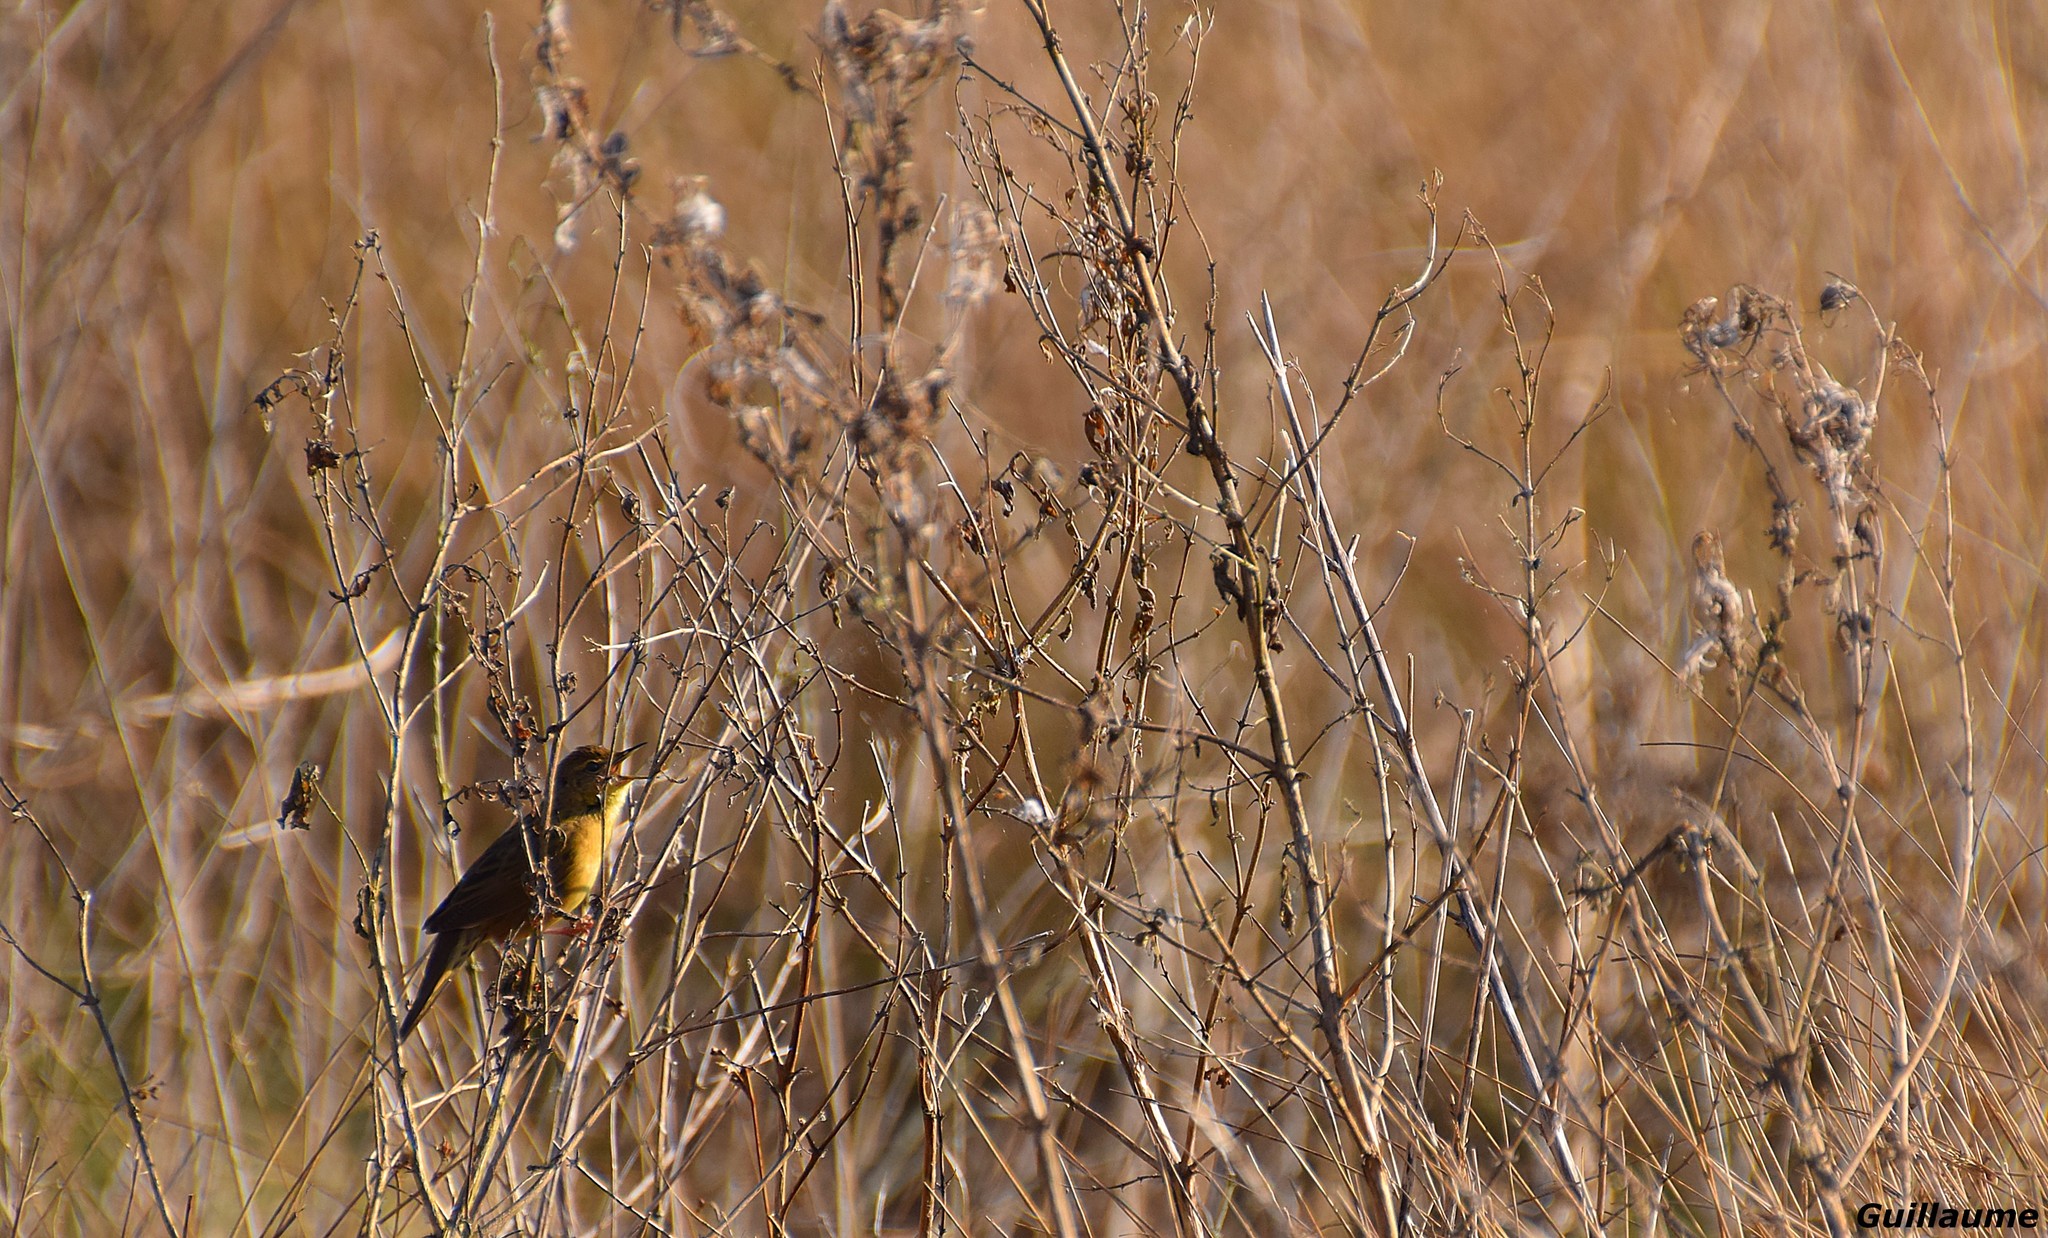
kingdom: Animalia
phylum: Chordata
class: Aves
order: Passeriformes
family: Locustellidae
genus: Locustella
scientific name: Locustella naevia
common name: Common grasshopper warbler
